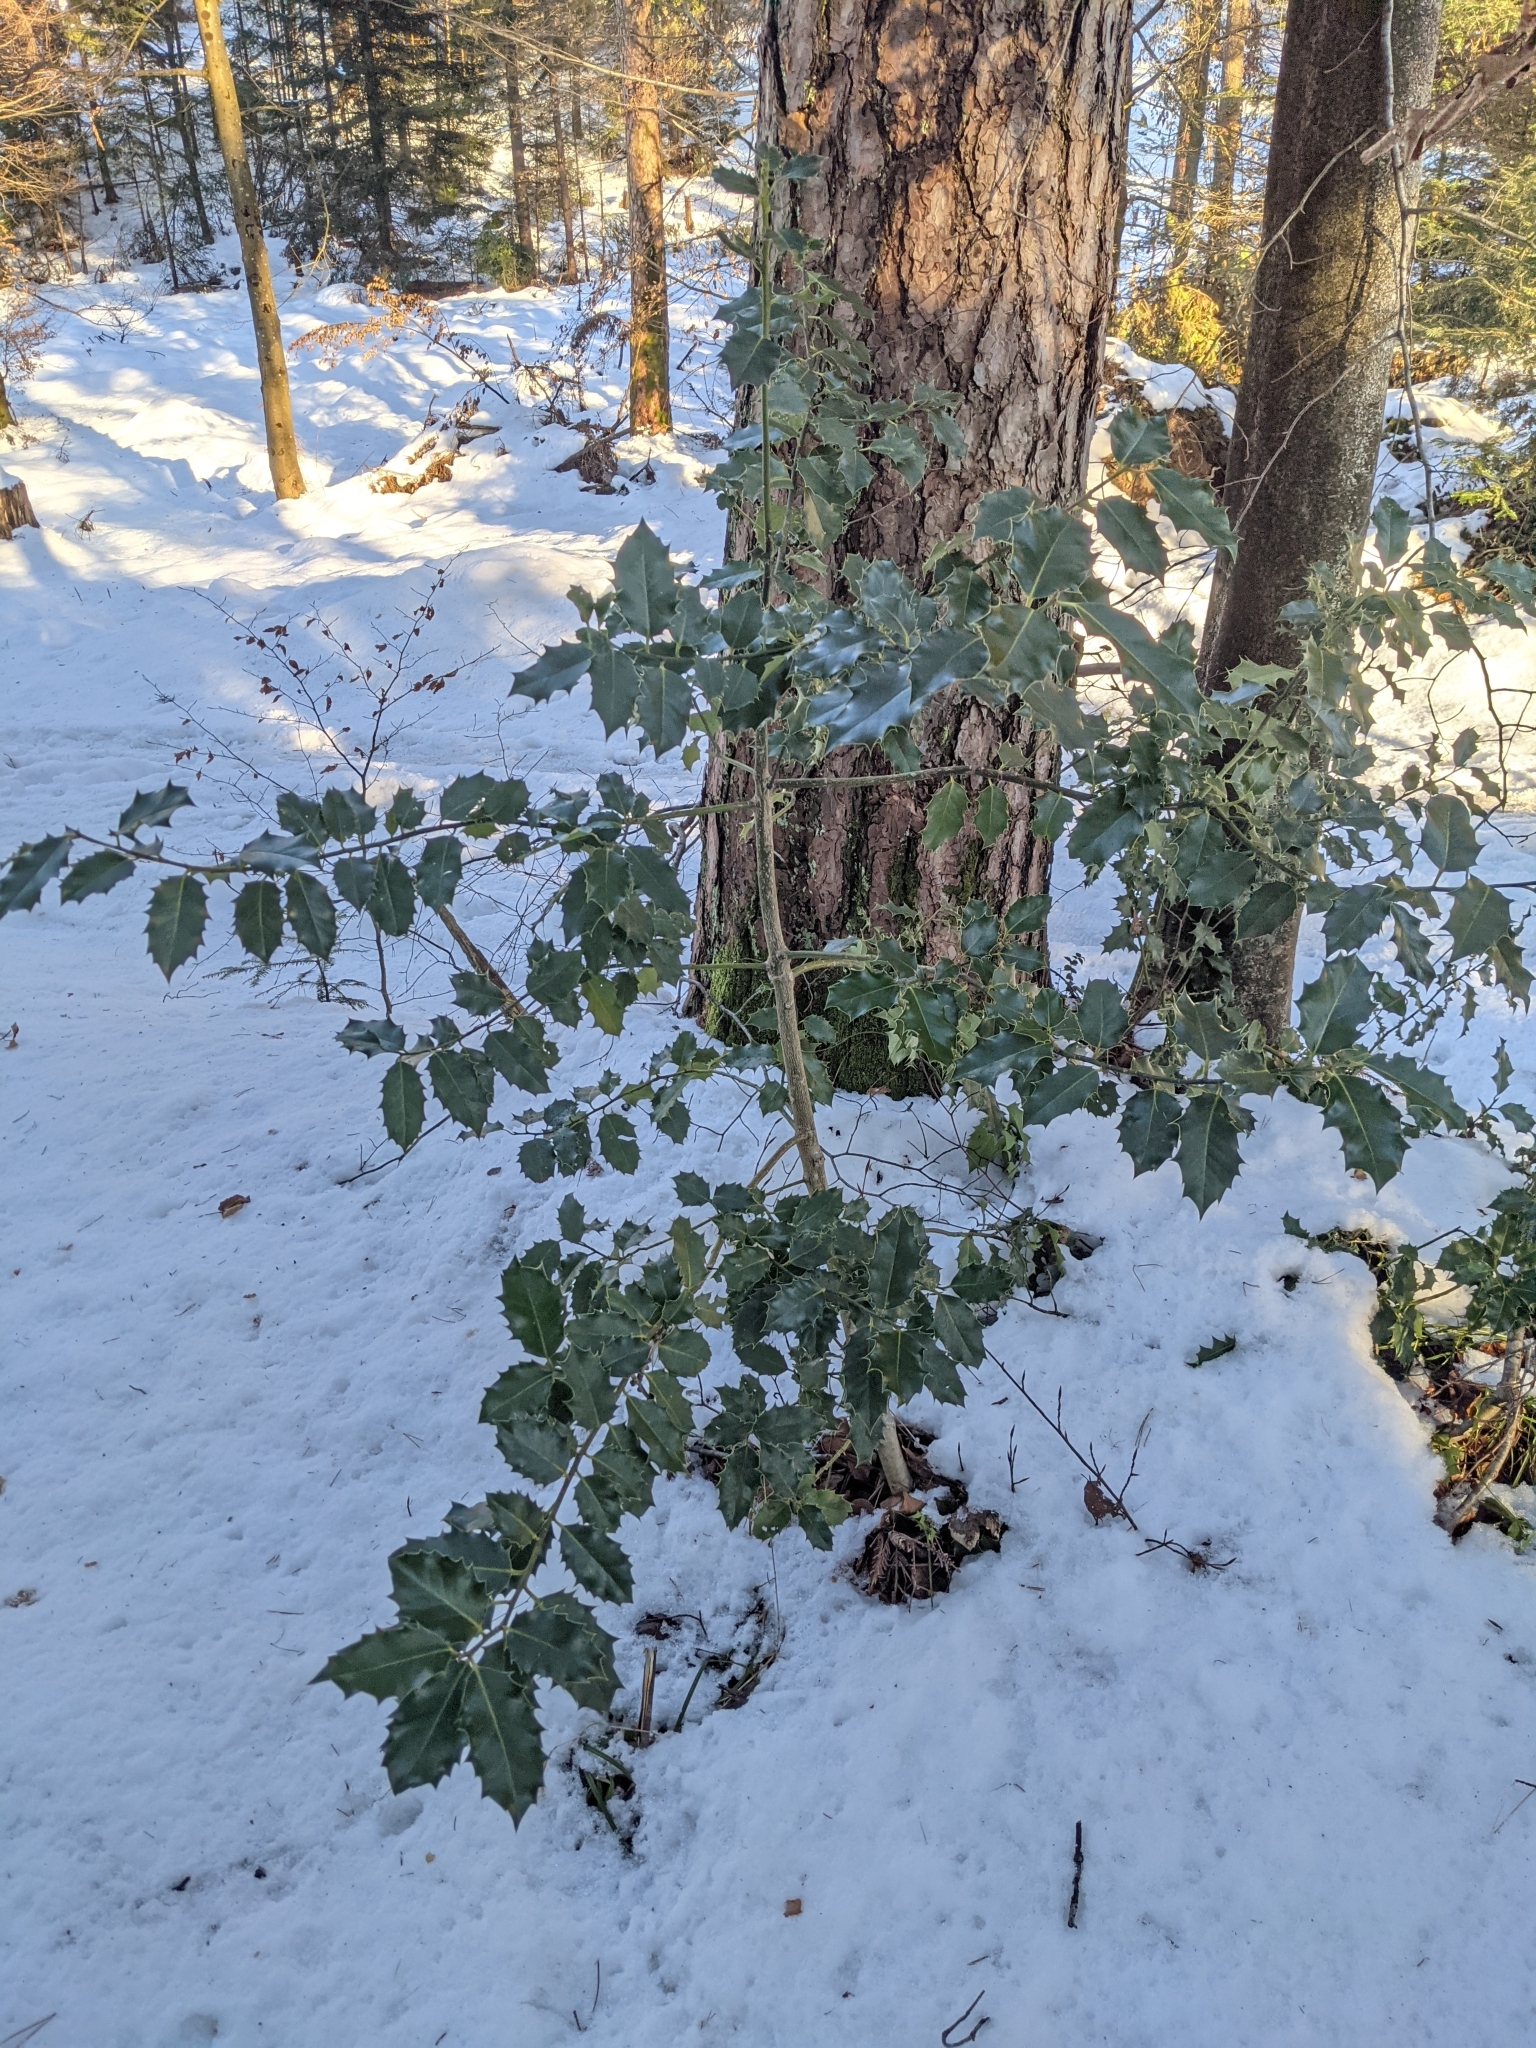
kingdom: Plantae
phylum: Tracheophyta
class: Magnoliopsida
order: Aquifoliales
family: Aquifoliaceae
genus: Ilex
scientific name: Ilex aquifolium
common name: English holly
